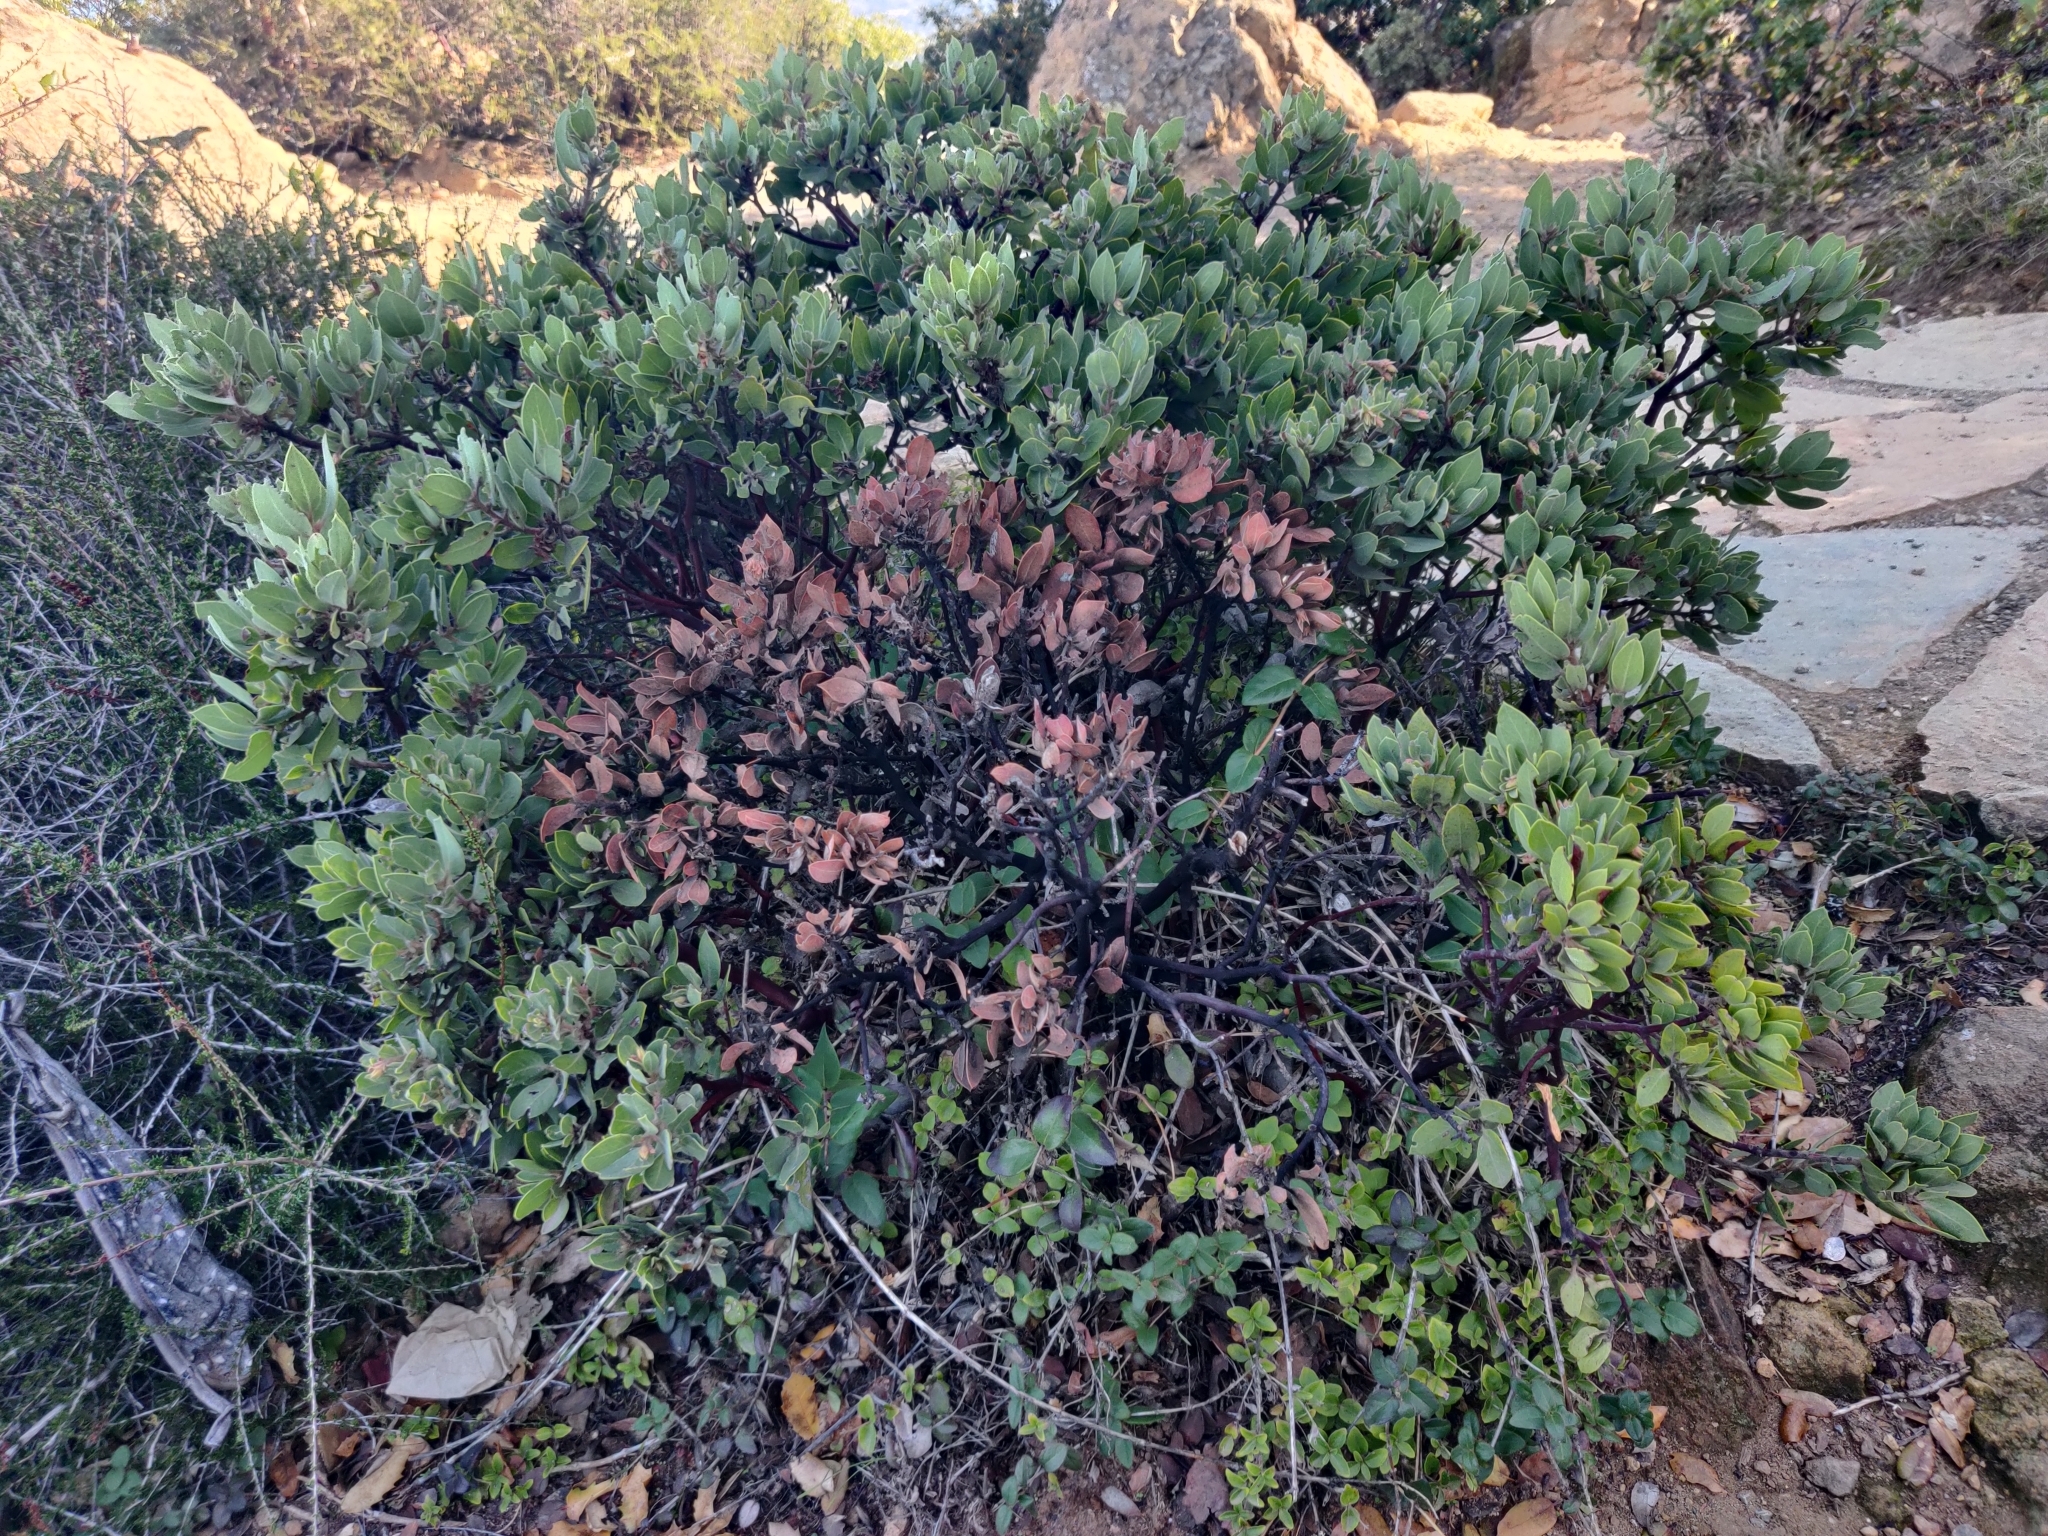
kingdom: Plantae
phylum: Tracheophyta
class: Magnoliopsida
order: Ericales
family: Ericaceae
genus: Arctostaphylos
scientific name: Arctostaphylos glandulosa
